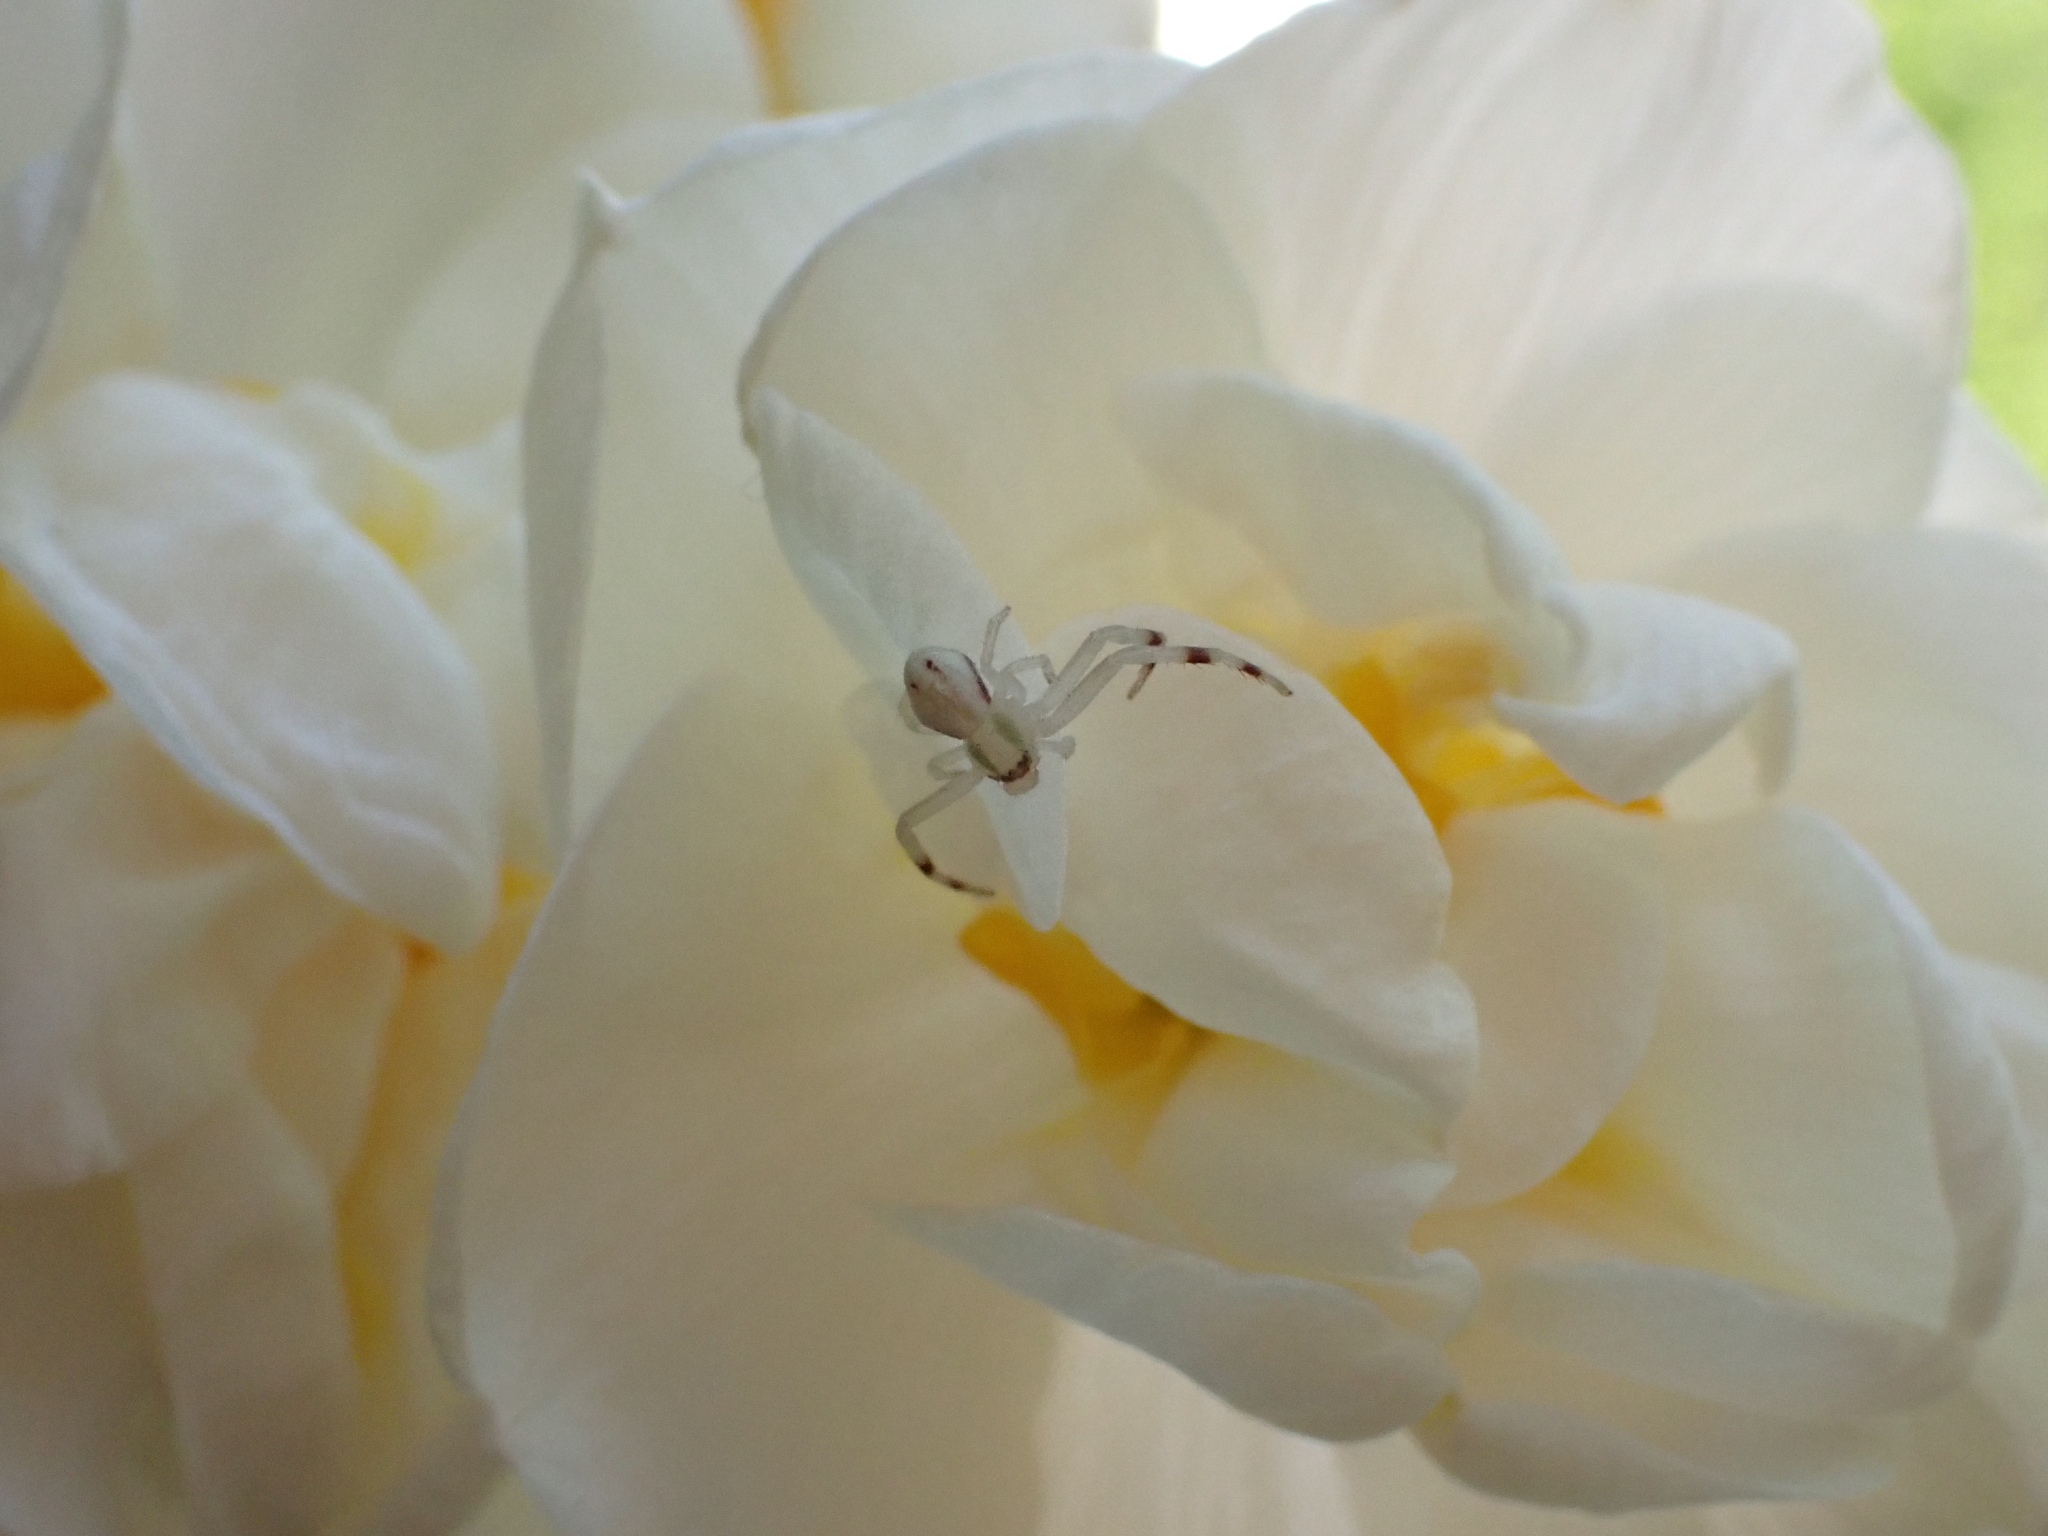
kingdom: Animalia
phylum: Arthropoda
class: Arachnida
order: Araneae
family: Thomisidae
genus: Misumena
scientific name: Misumena vatia
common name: Goldenrod crab spider
